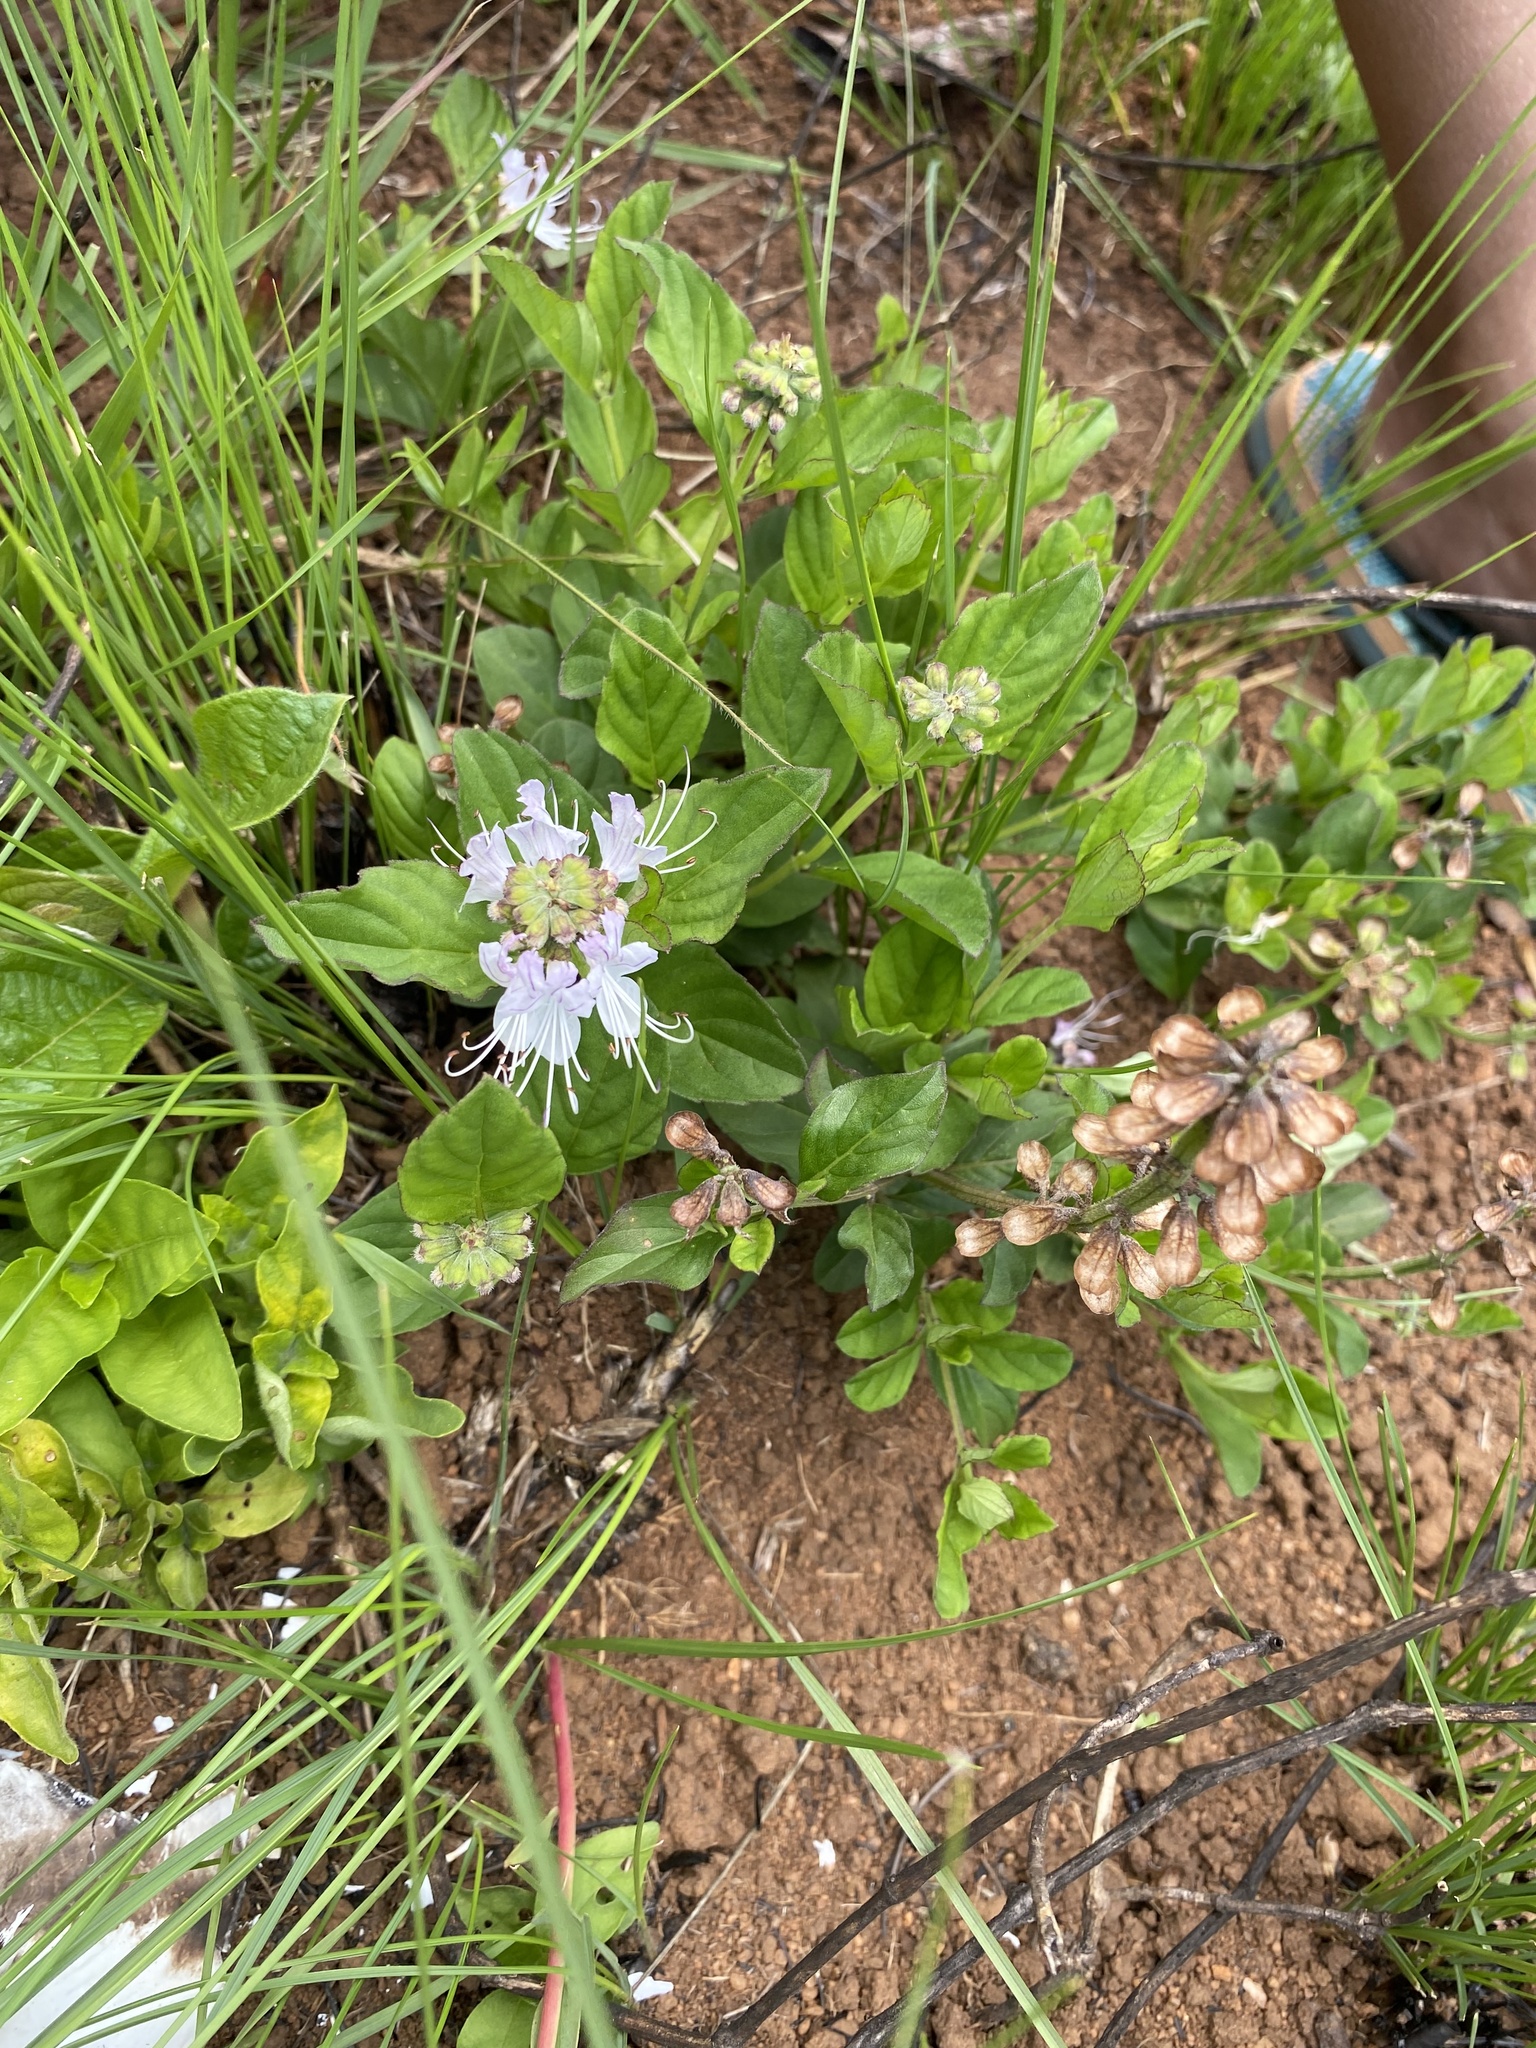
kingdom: Plantae
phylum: Tracheophyta
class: Magnoliopsida
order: Lamiales
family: Lamiaceae
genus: Ocimum
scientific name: Ocimum obovatum
